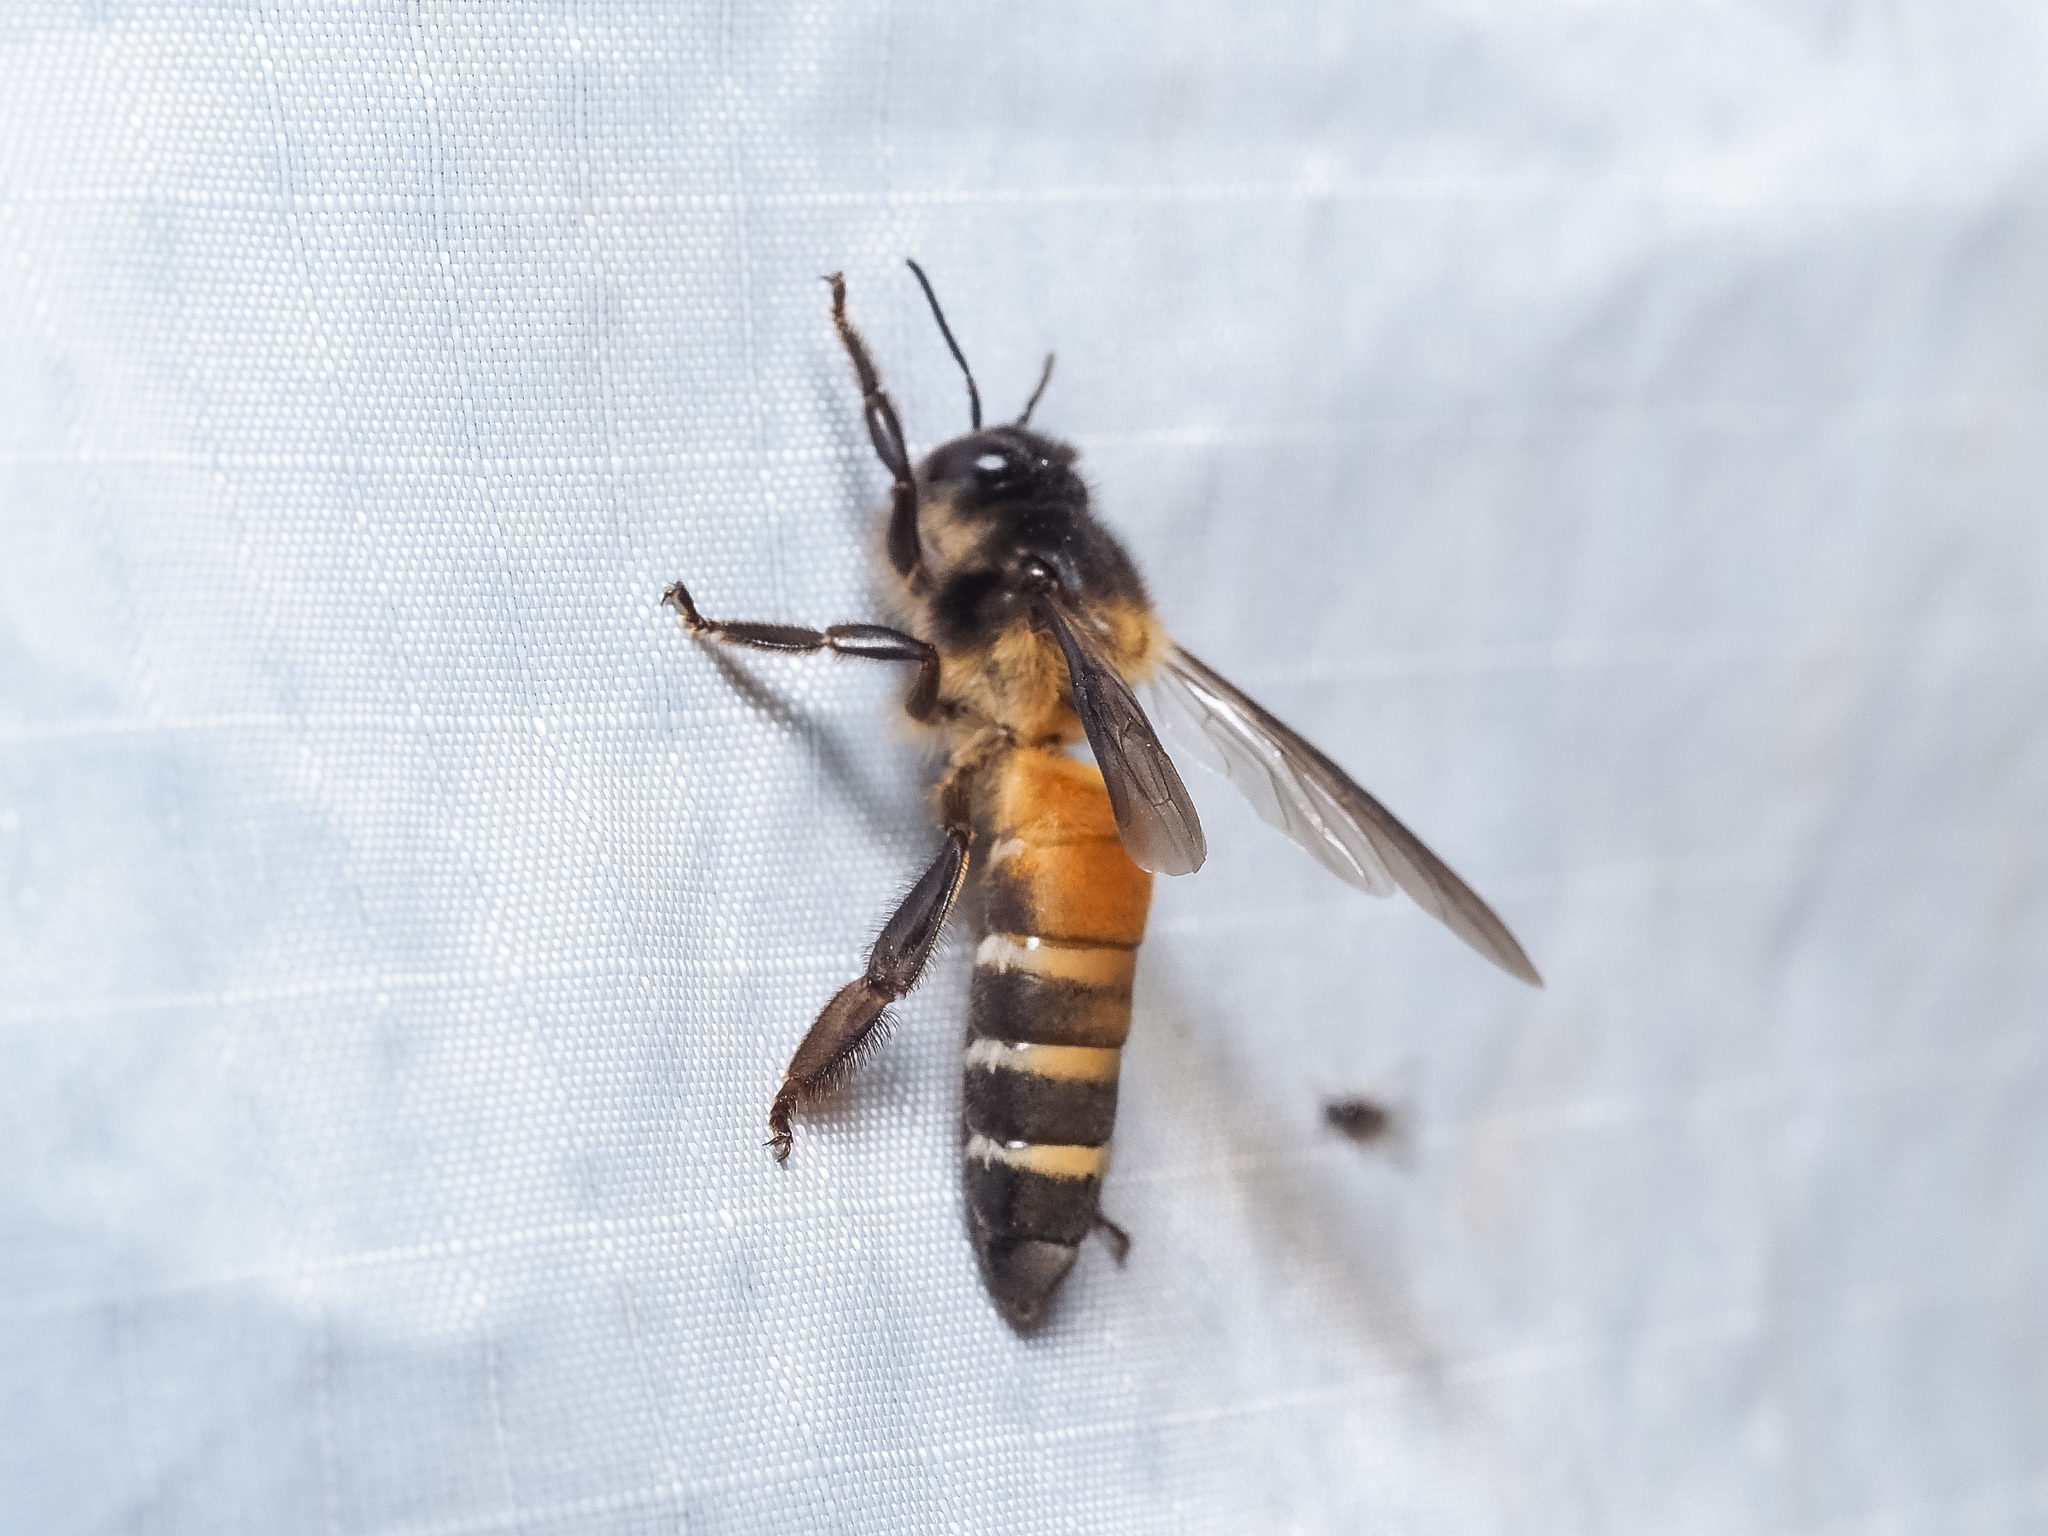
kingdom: Animalia
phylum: Arthropoda
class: Insecta
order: Hymenoptera
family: Apidae
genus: Apis
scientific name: Apis dorsata
